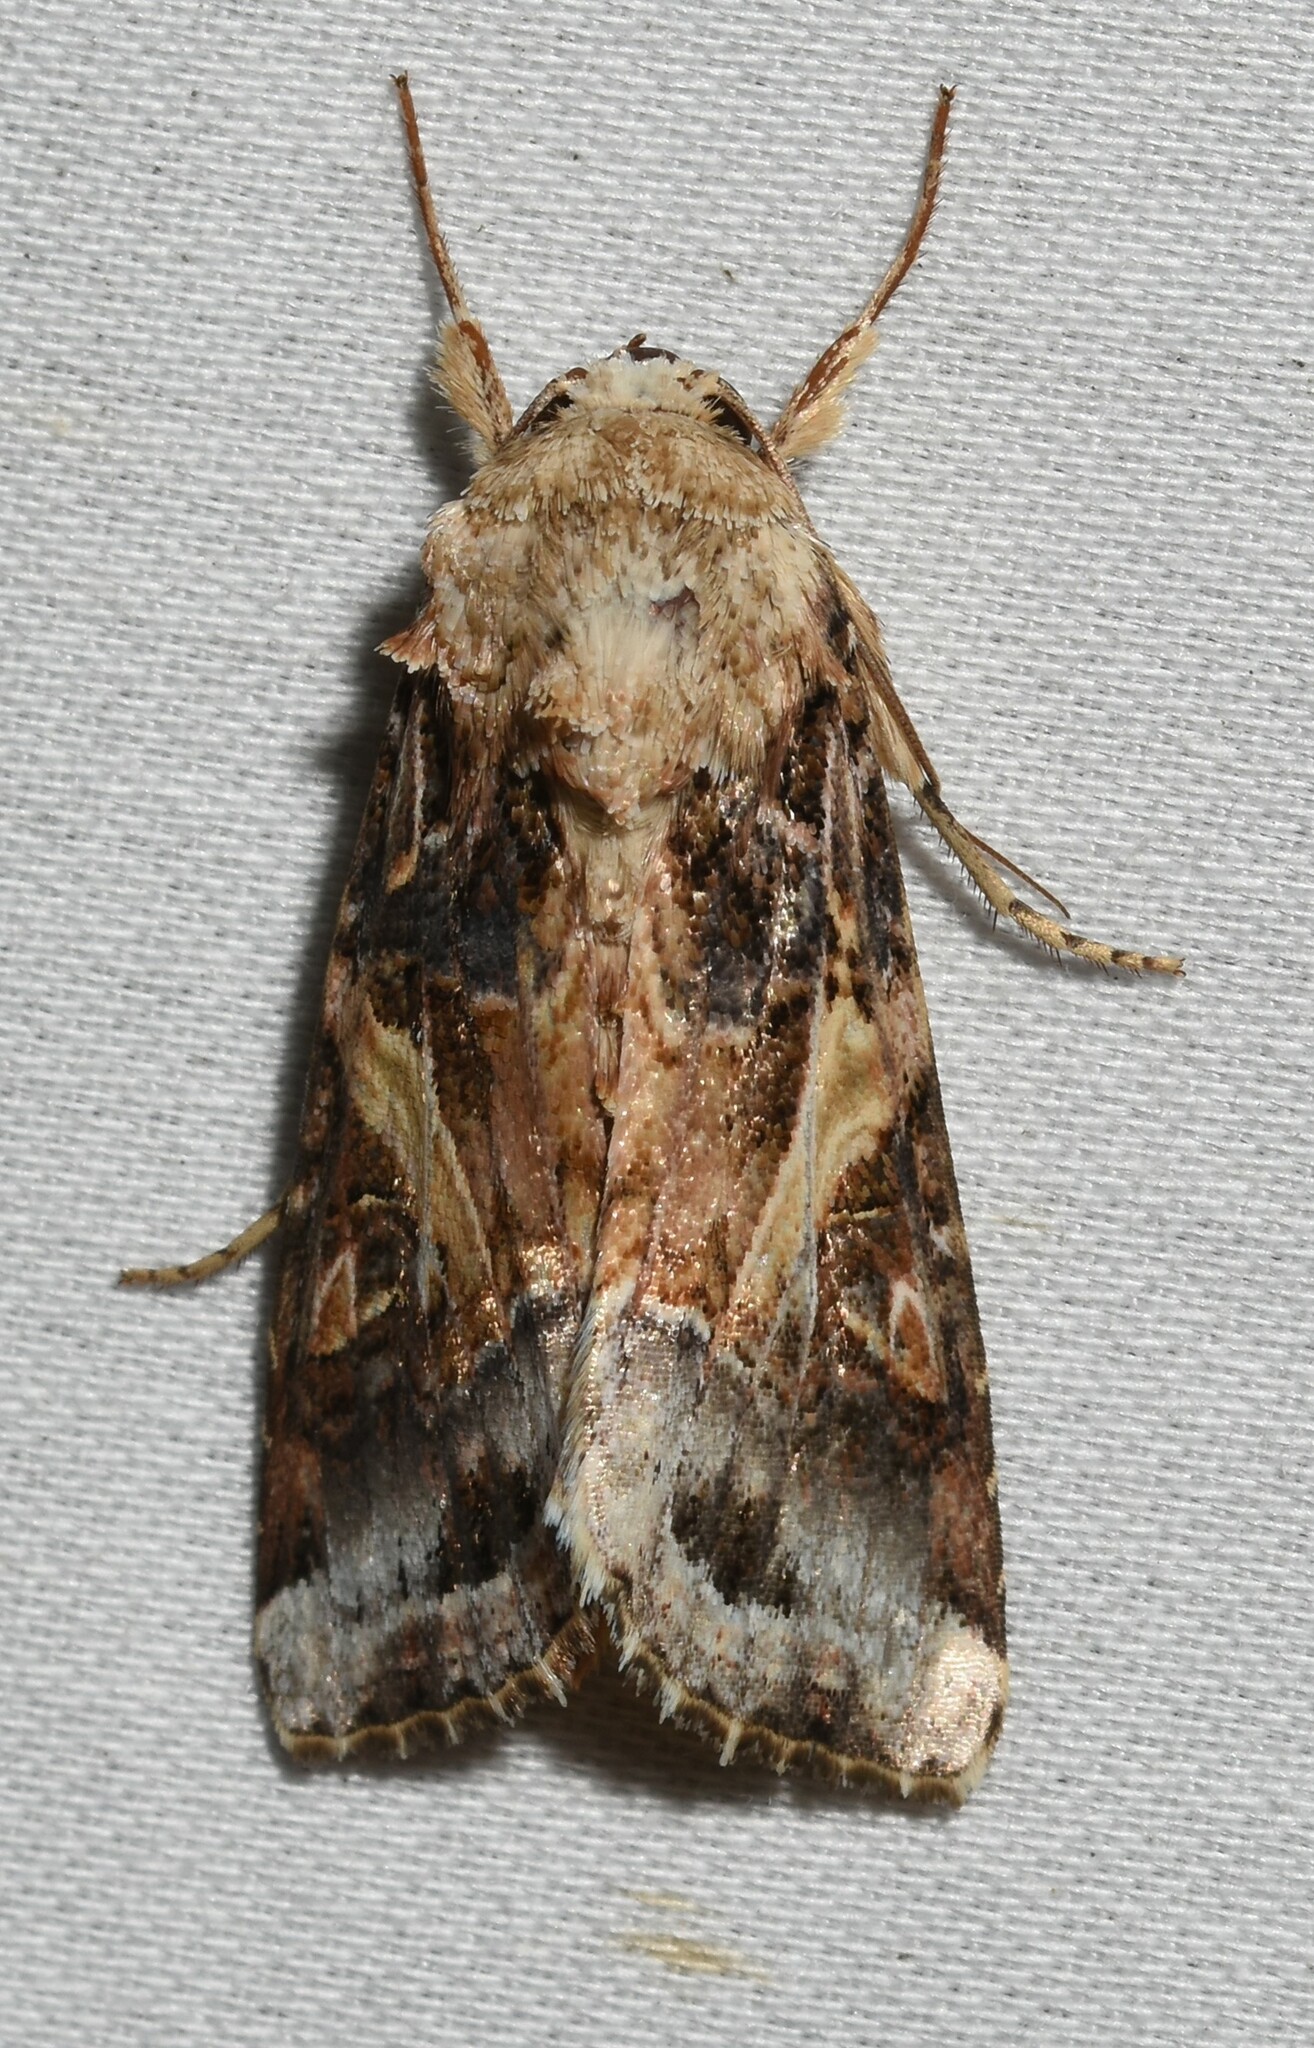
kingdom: Animalia
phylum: Arthropoda
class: Insecta
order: Lepidoptera
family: Noctuidae
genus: Spodoptera
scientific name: Spodoptera ornithogalli
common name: Yellow-striped armyworm
